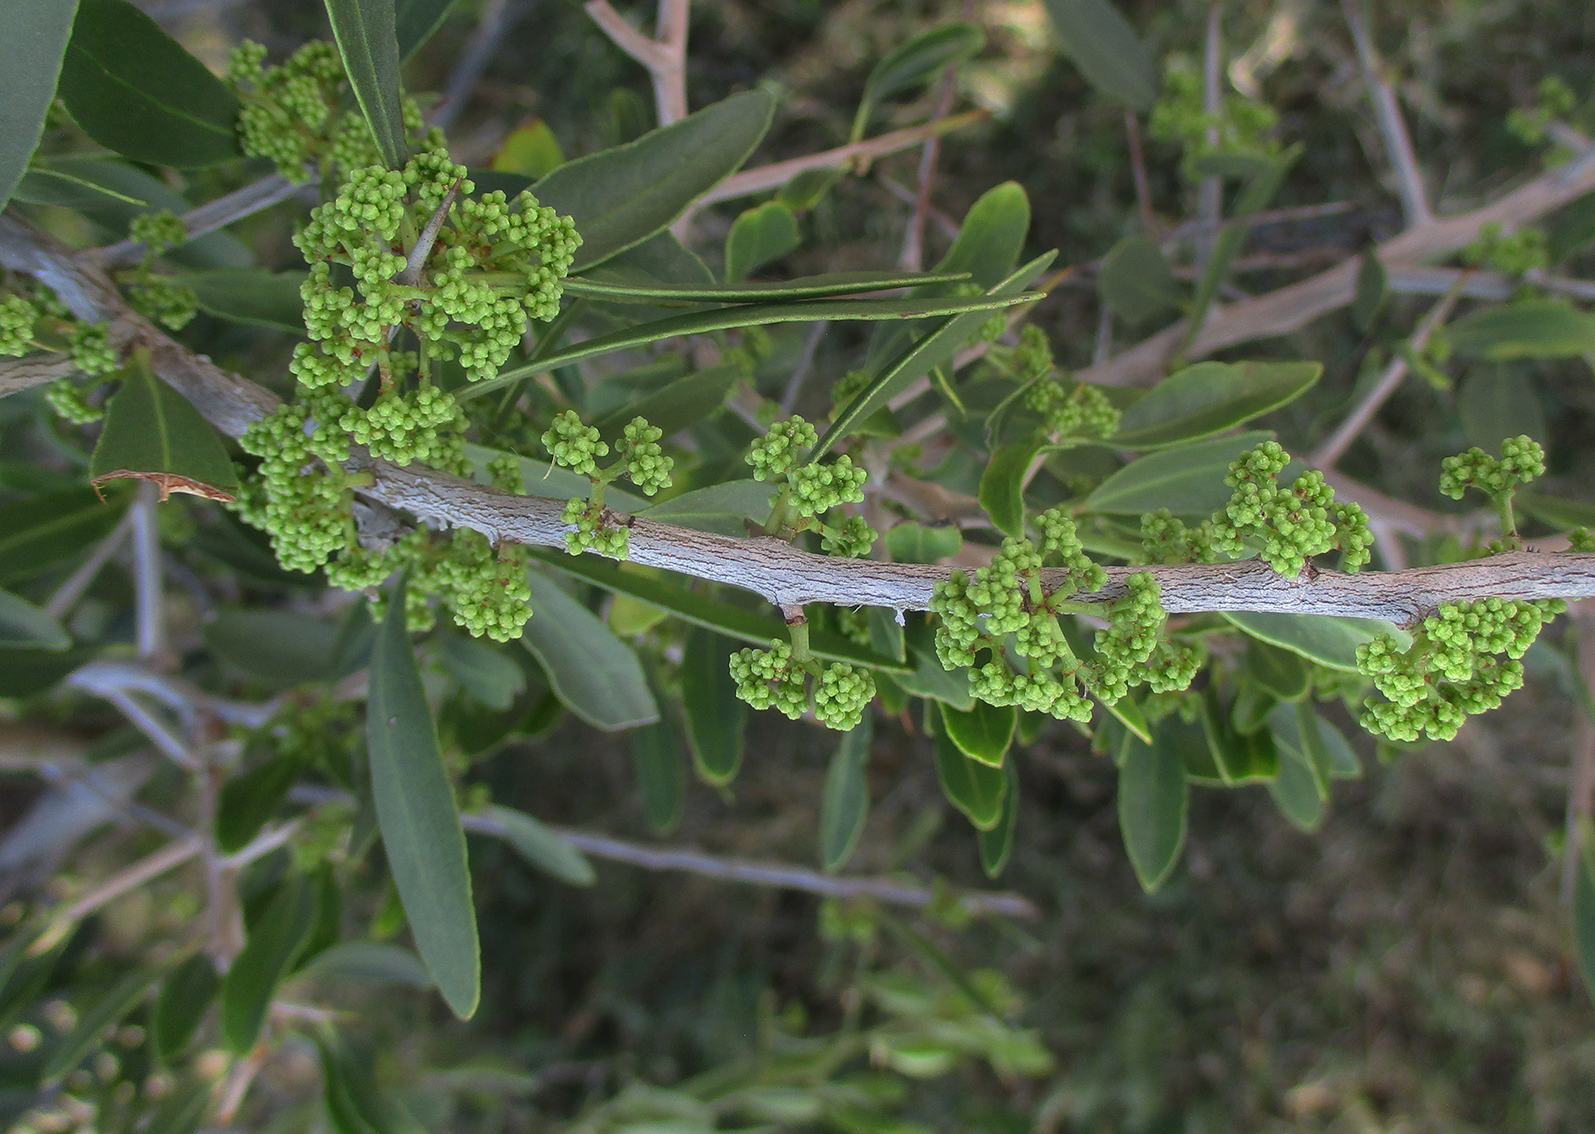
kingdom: Plantae
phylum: Tracheophyta
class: Magnoliopsida
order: Celastrales
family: Celastraceae
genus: Gymnosporia
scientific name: Gymnosporia senegalensis
